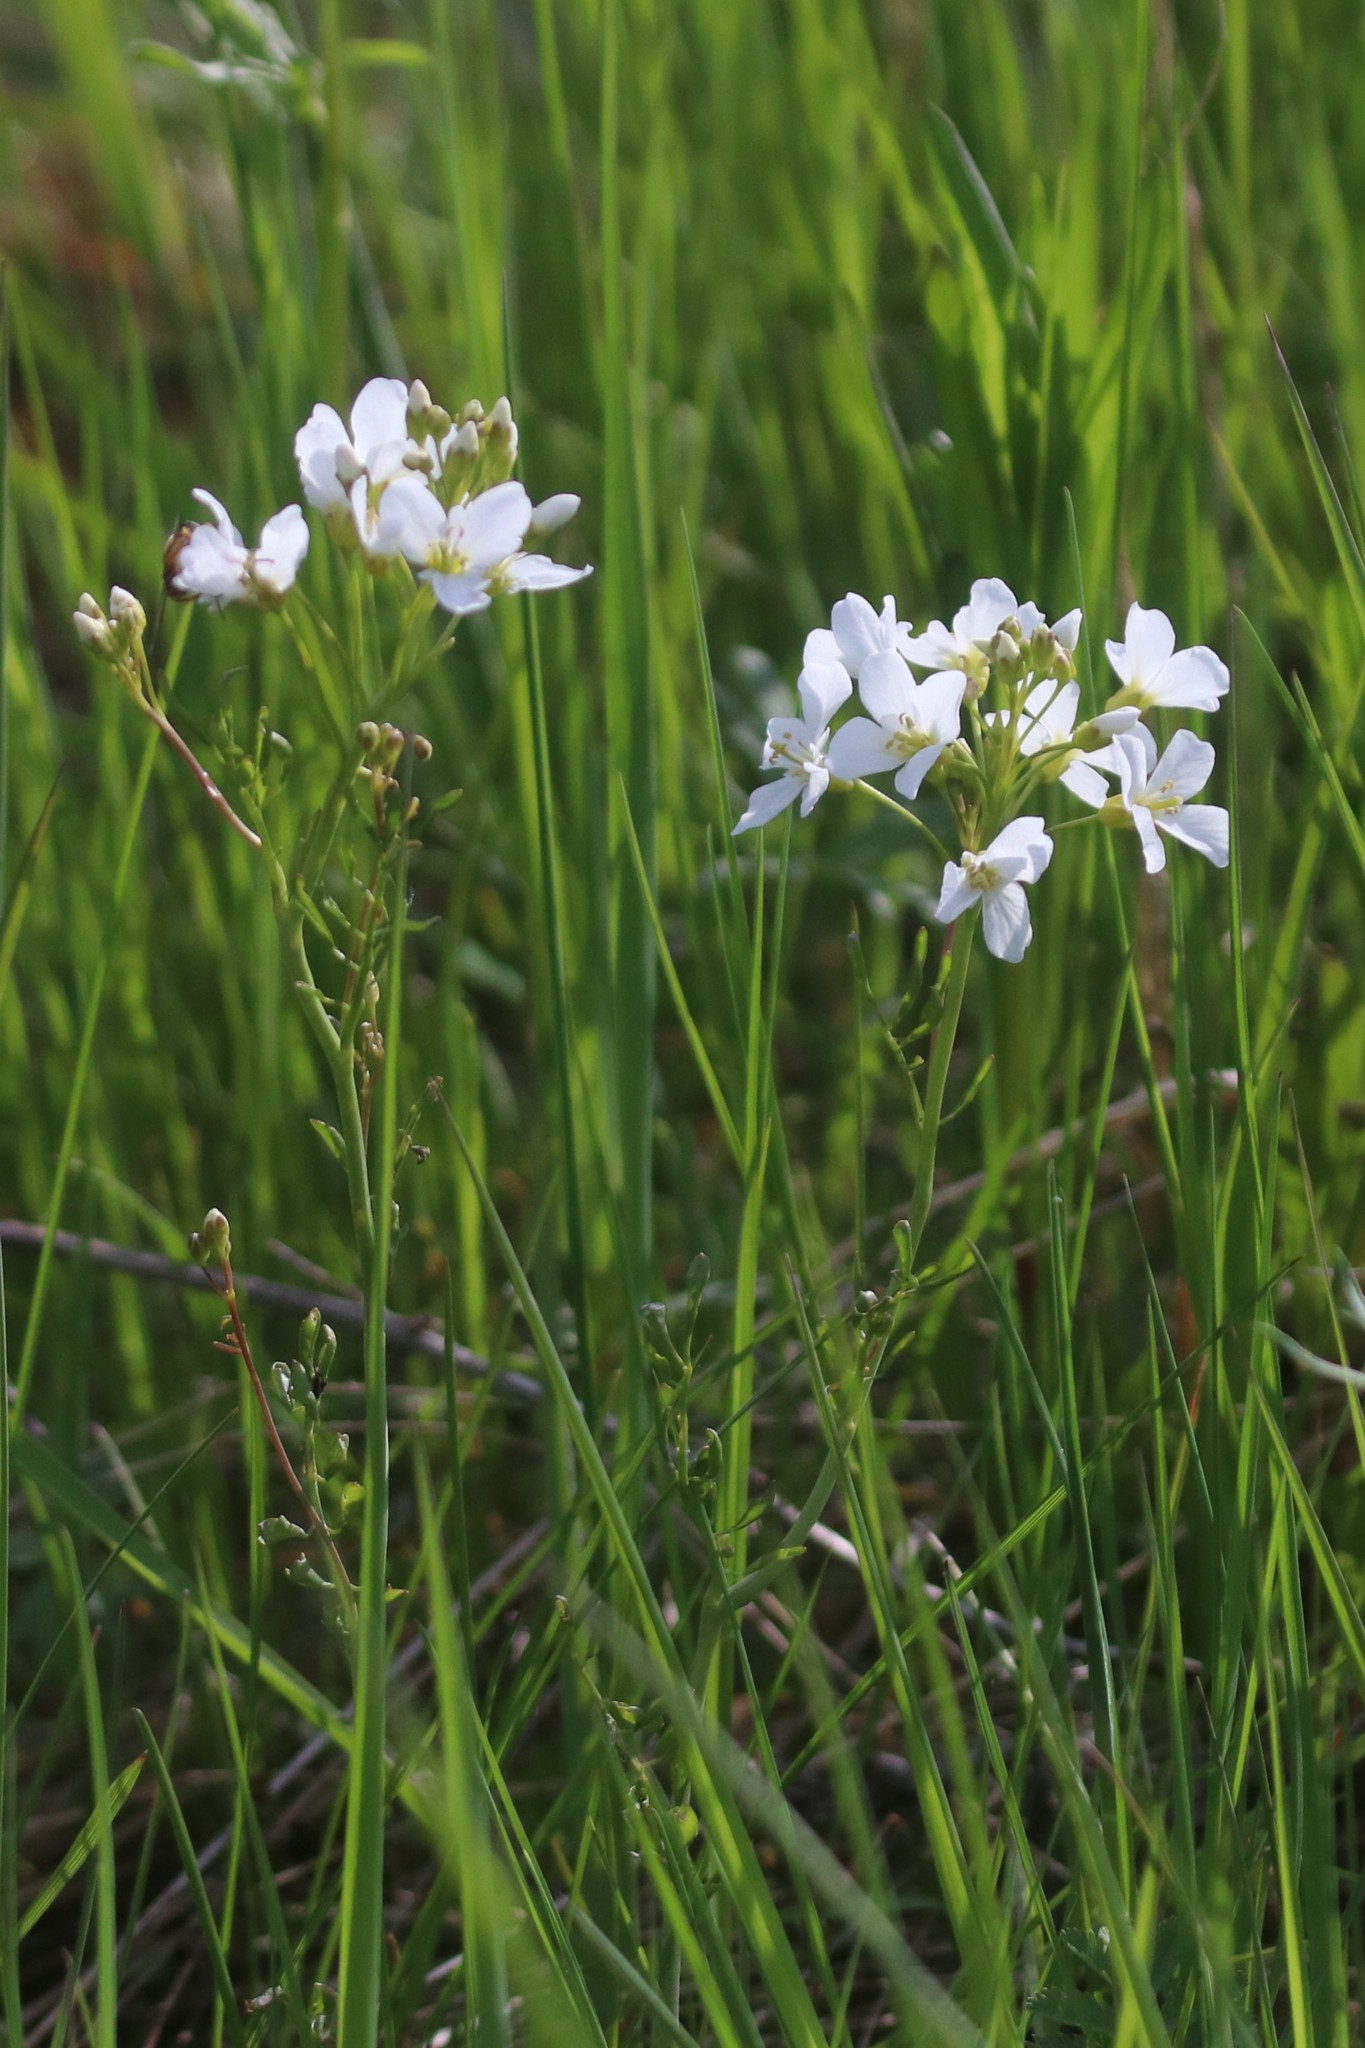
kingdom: Plantae
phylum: Tracheophyta
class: Magnoliopsida
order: Brassicales
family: Brassicaceae
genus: Cardamine
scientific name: Cardamine pratensis
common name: Cuckoo flower
